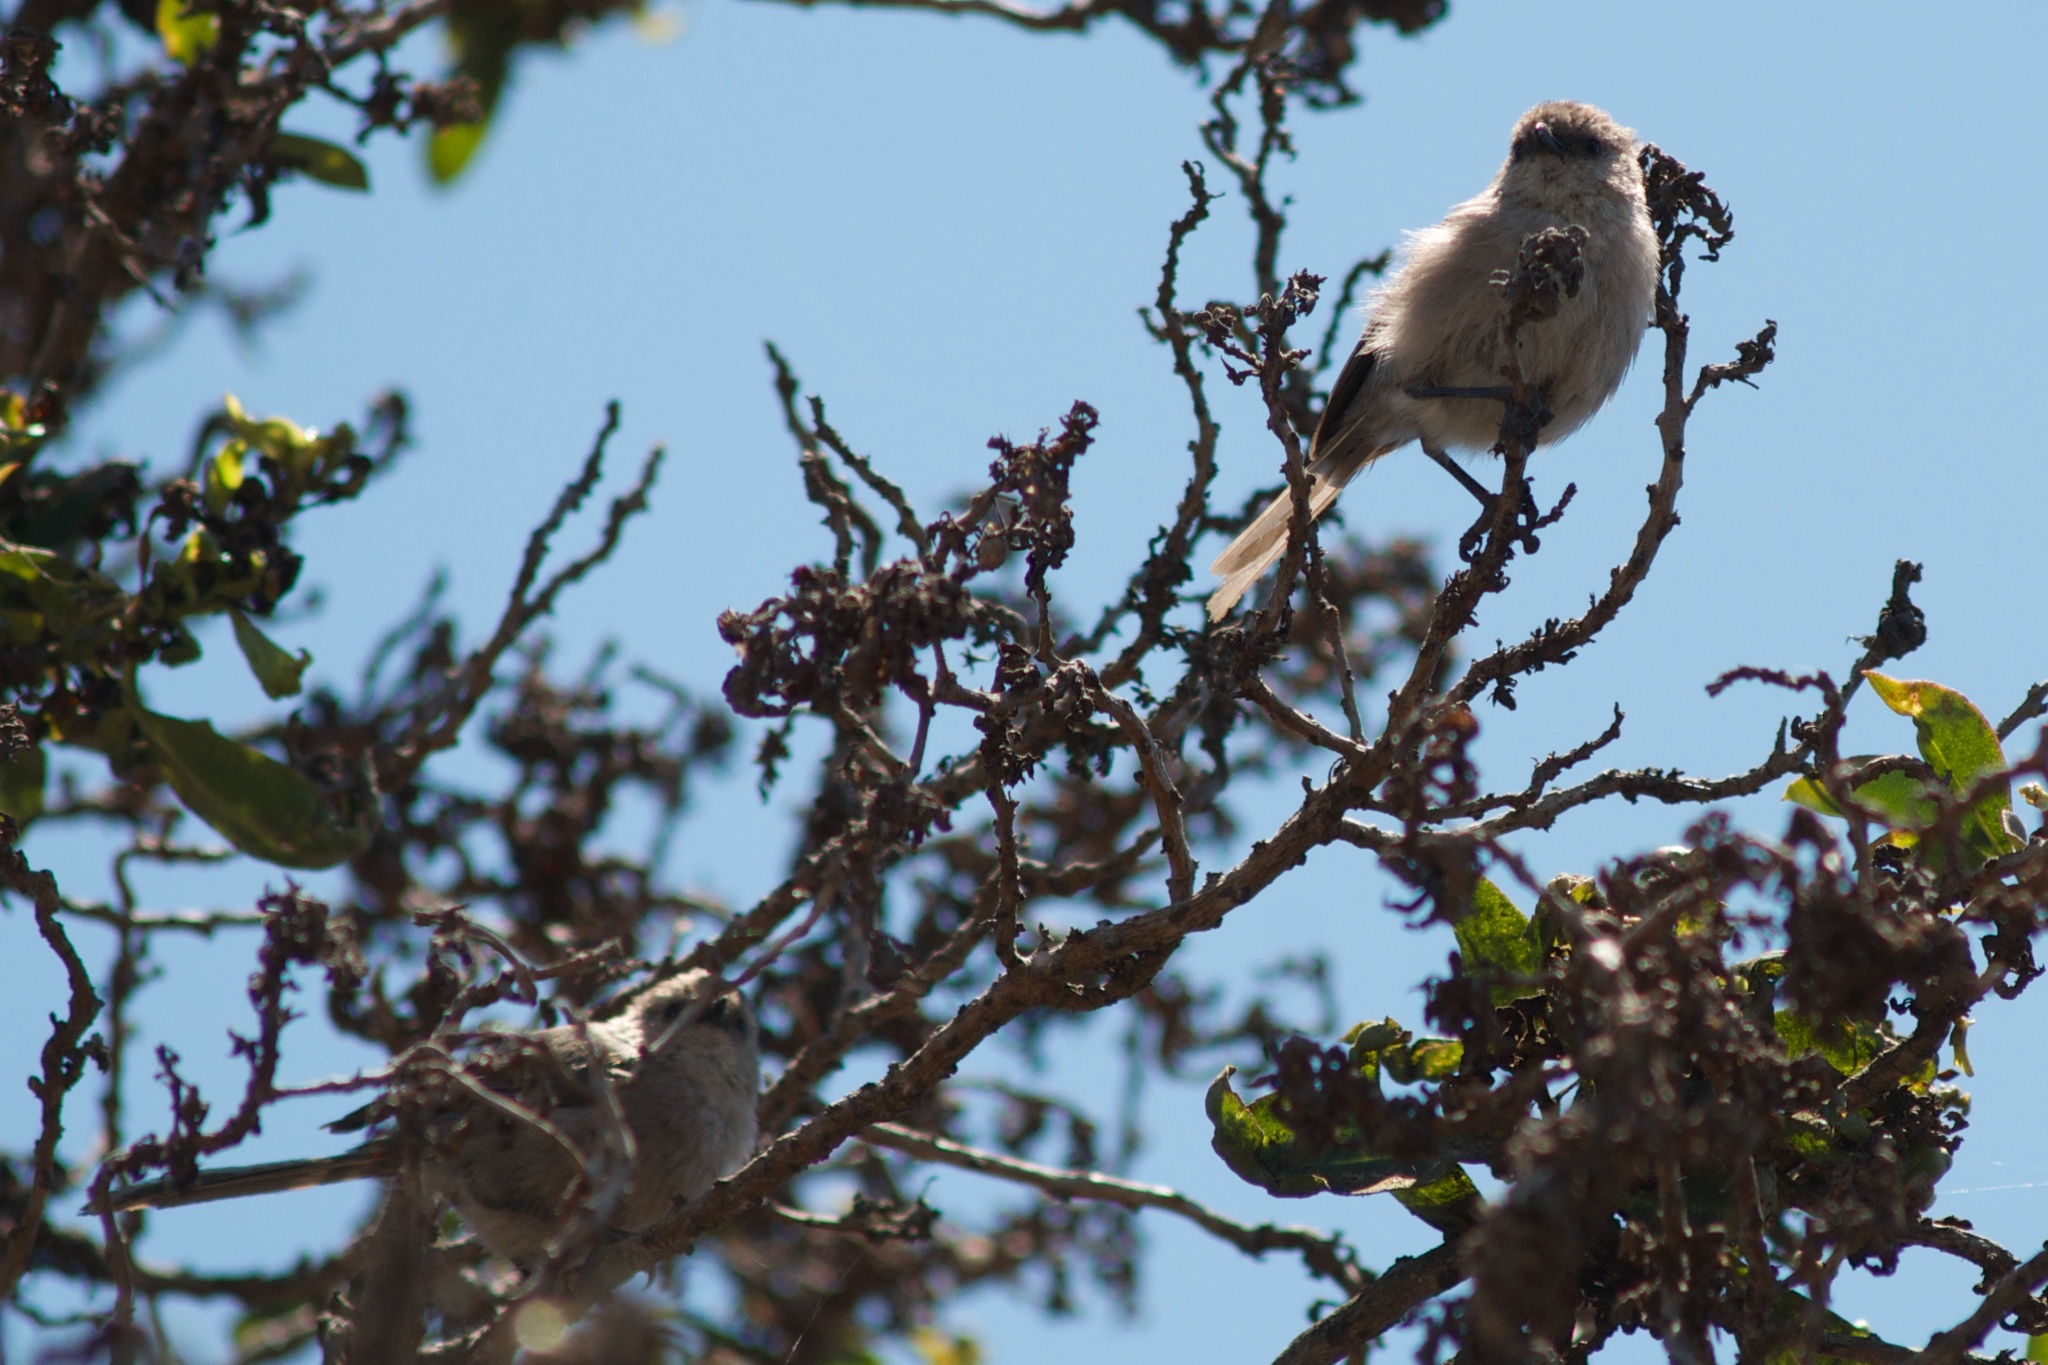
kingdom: Animalia
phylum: Chordata
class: Aves
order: Passeriformes
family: Aegithalidae
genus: Psaltriparus
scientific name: Psaltriparus minimus
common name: American bushtit
